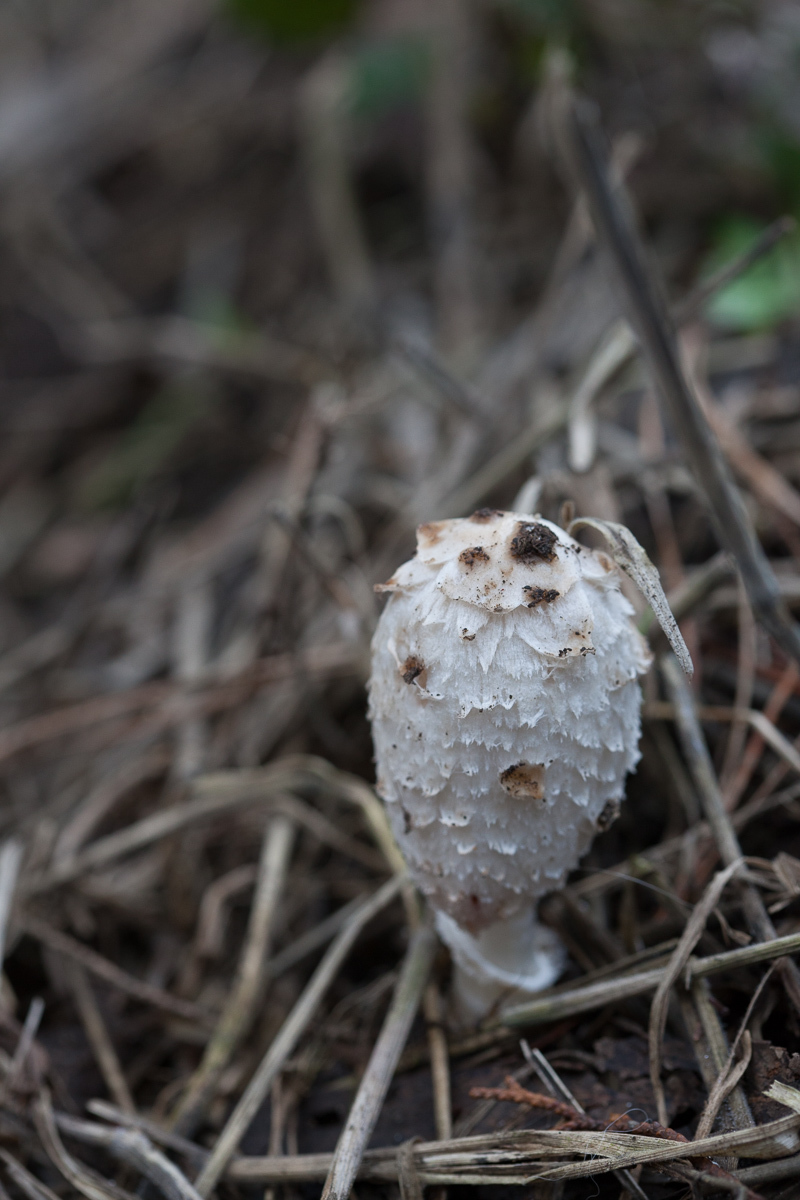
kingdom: Fungi
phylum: Basidiomycota
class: Agaricomycetes
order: Agaricales
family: Agaricaceae
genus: Coprinus
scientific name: Coprinus comatus
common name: Lawyer's wig
